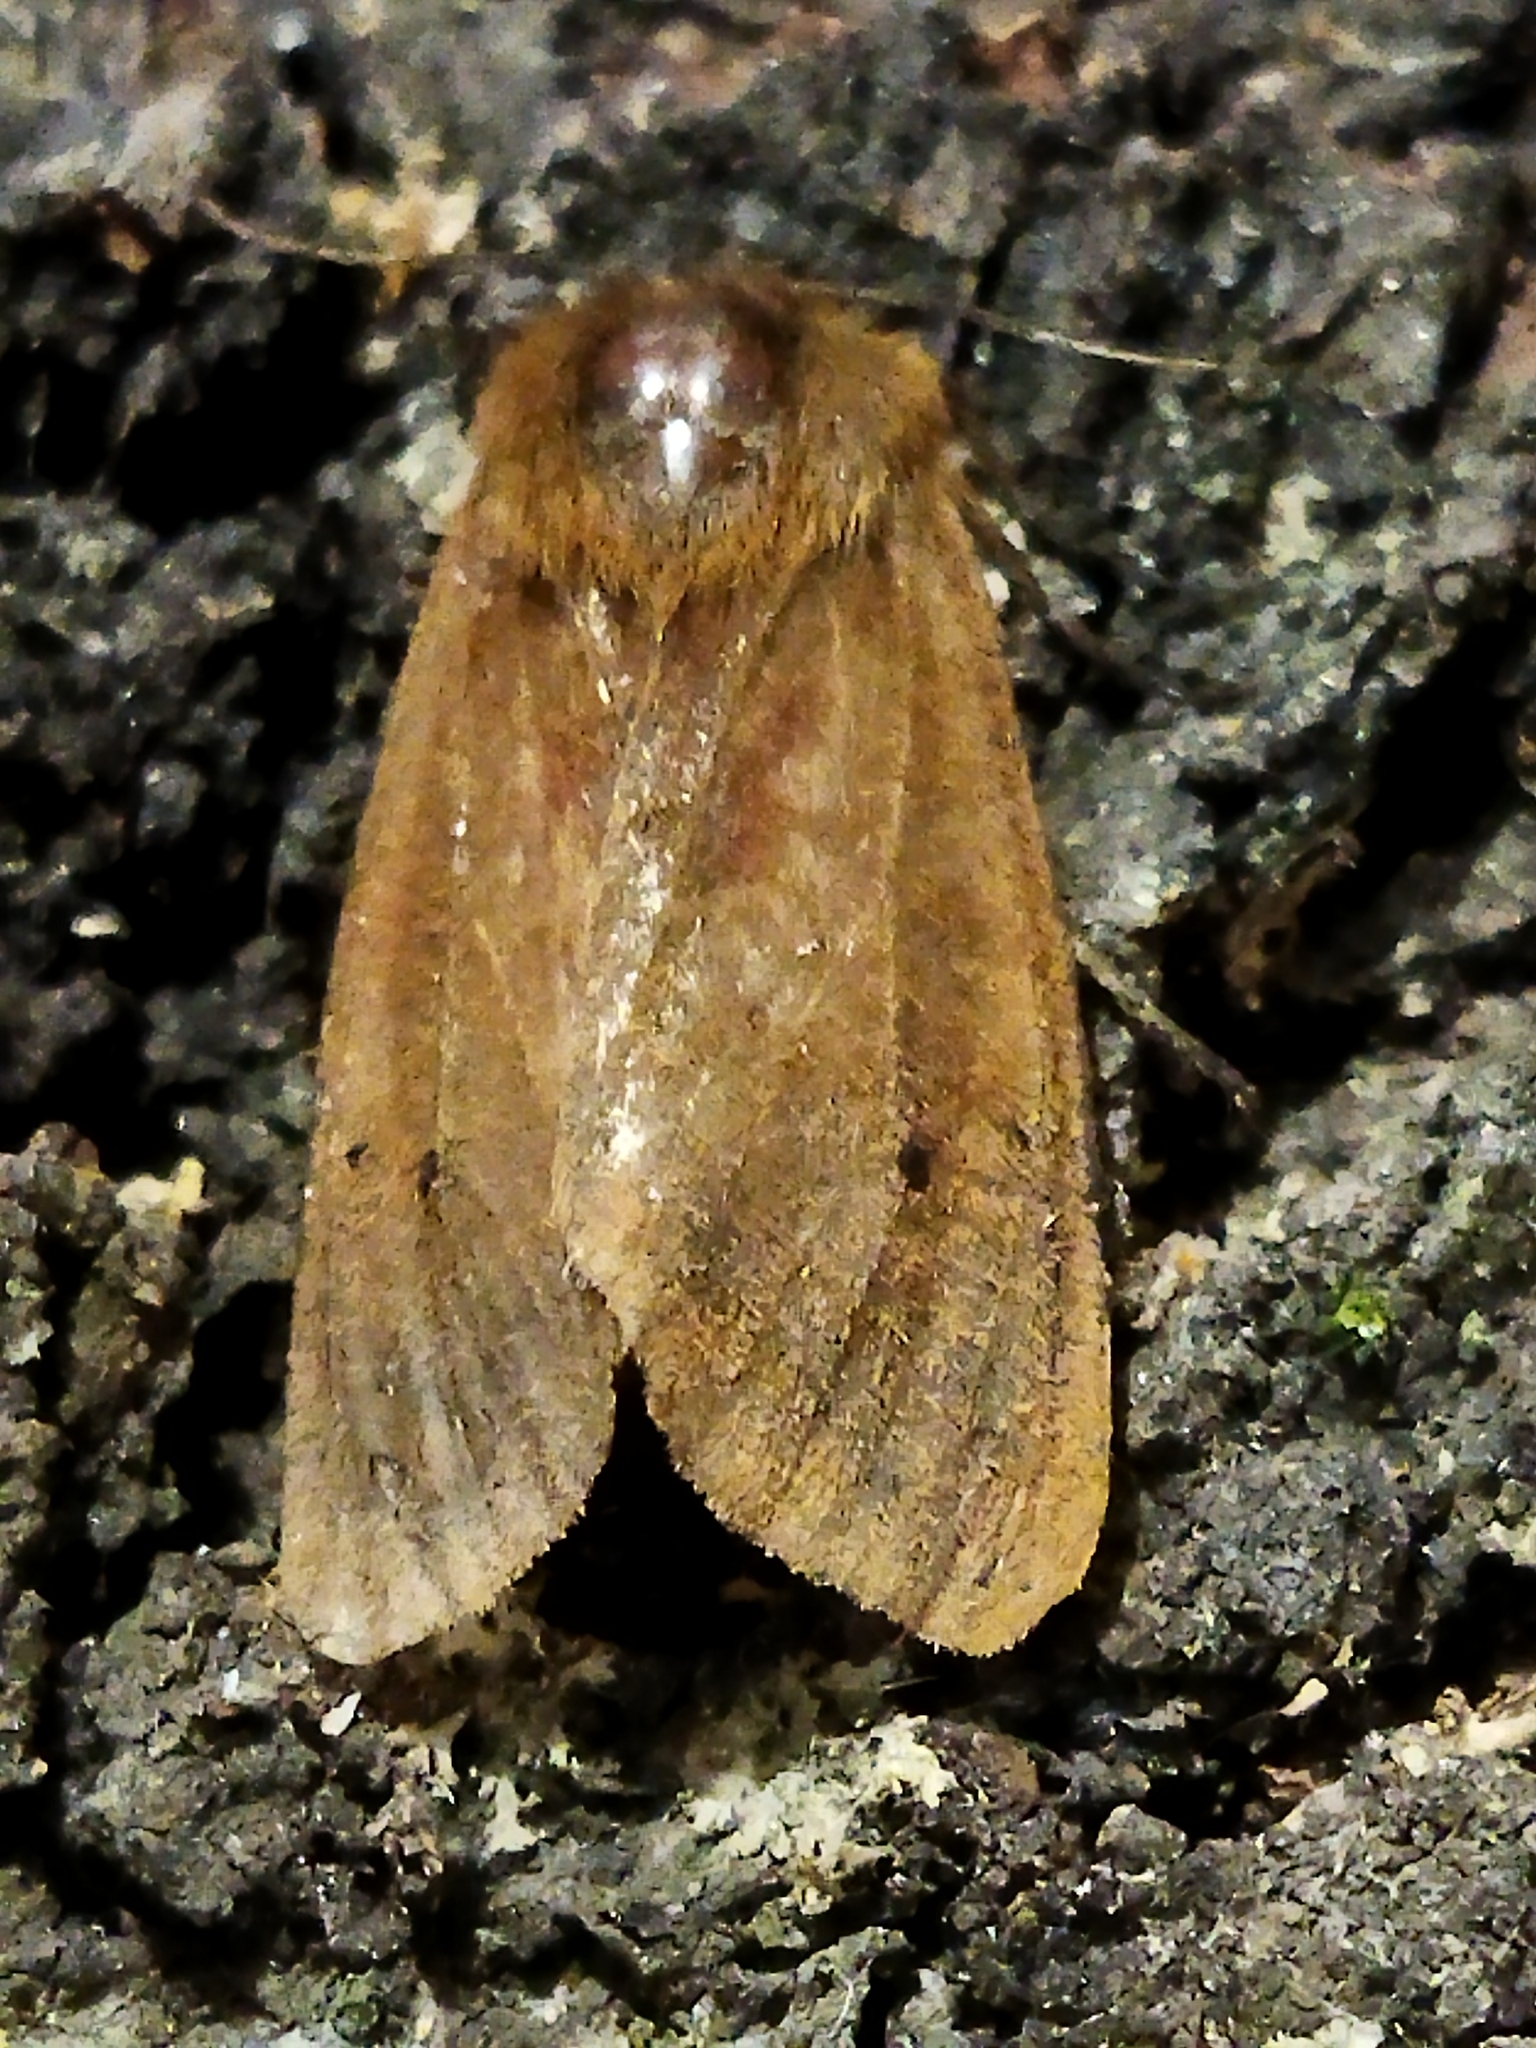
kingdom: Animalia
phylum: Arthropoda
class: Insecta
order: Lepidoptera
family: Erebidae
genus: Phragmatobia
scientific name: Phragmatobia fuliginosa
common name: Ruby tiger
